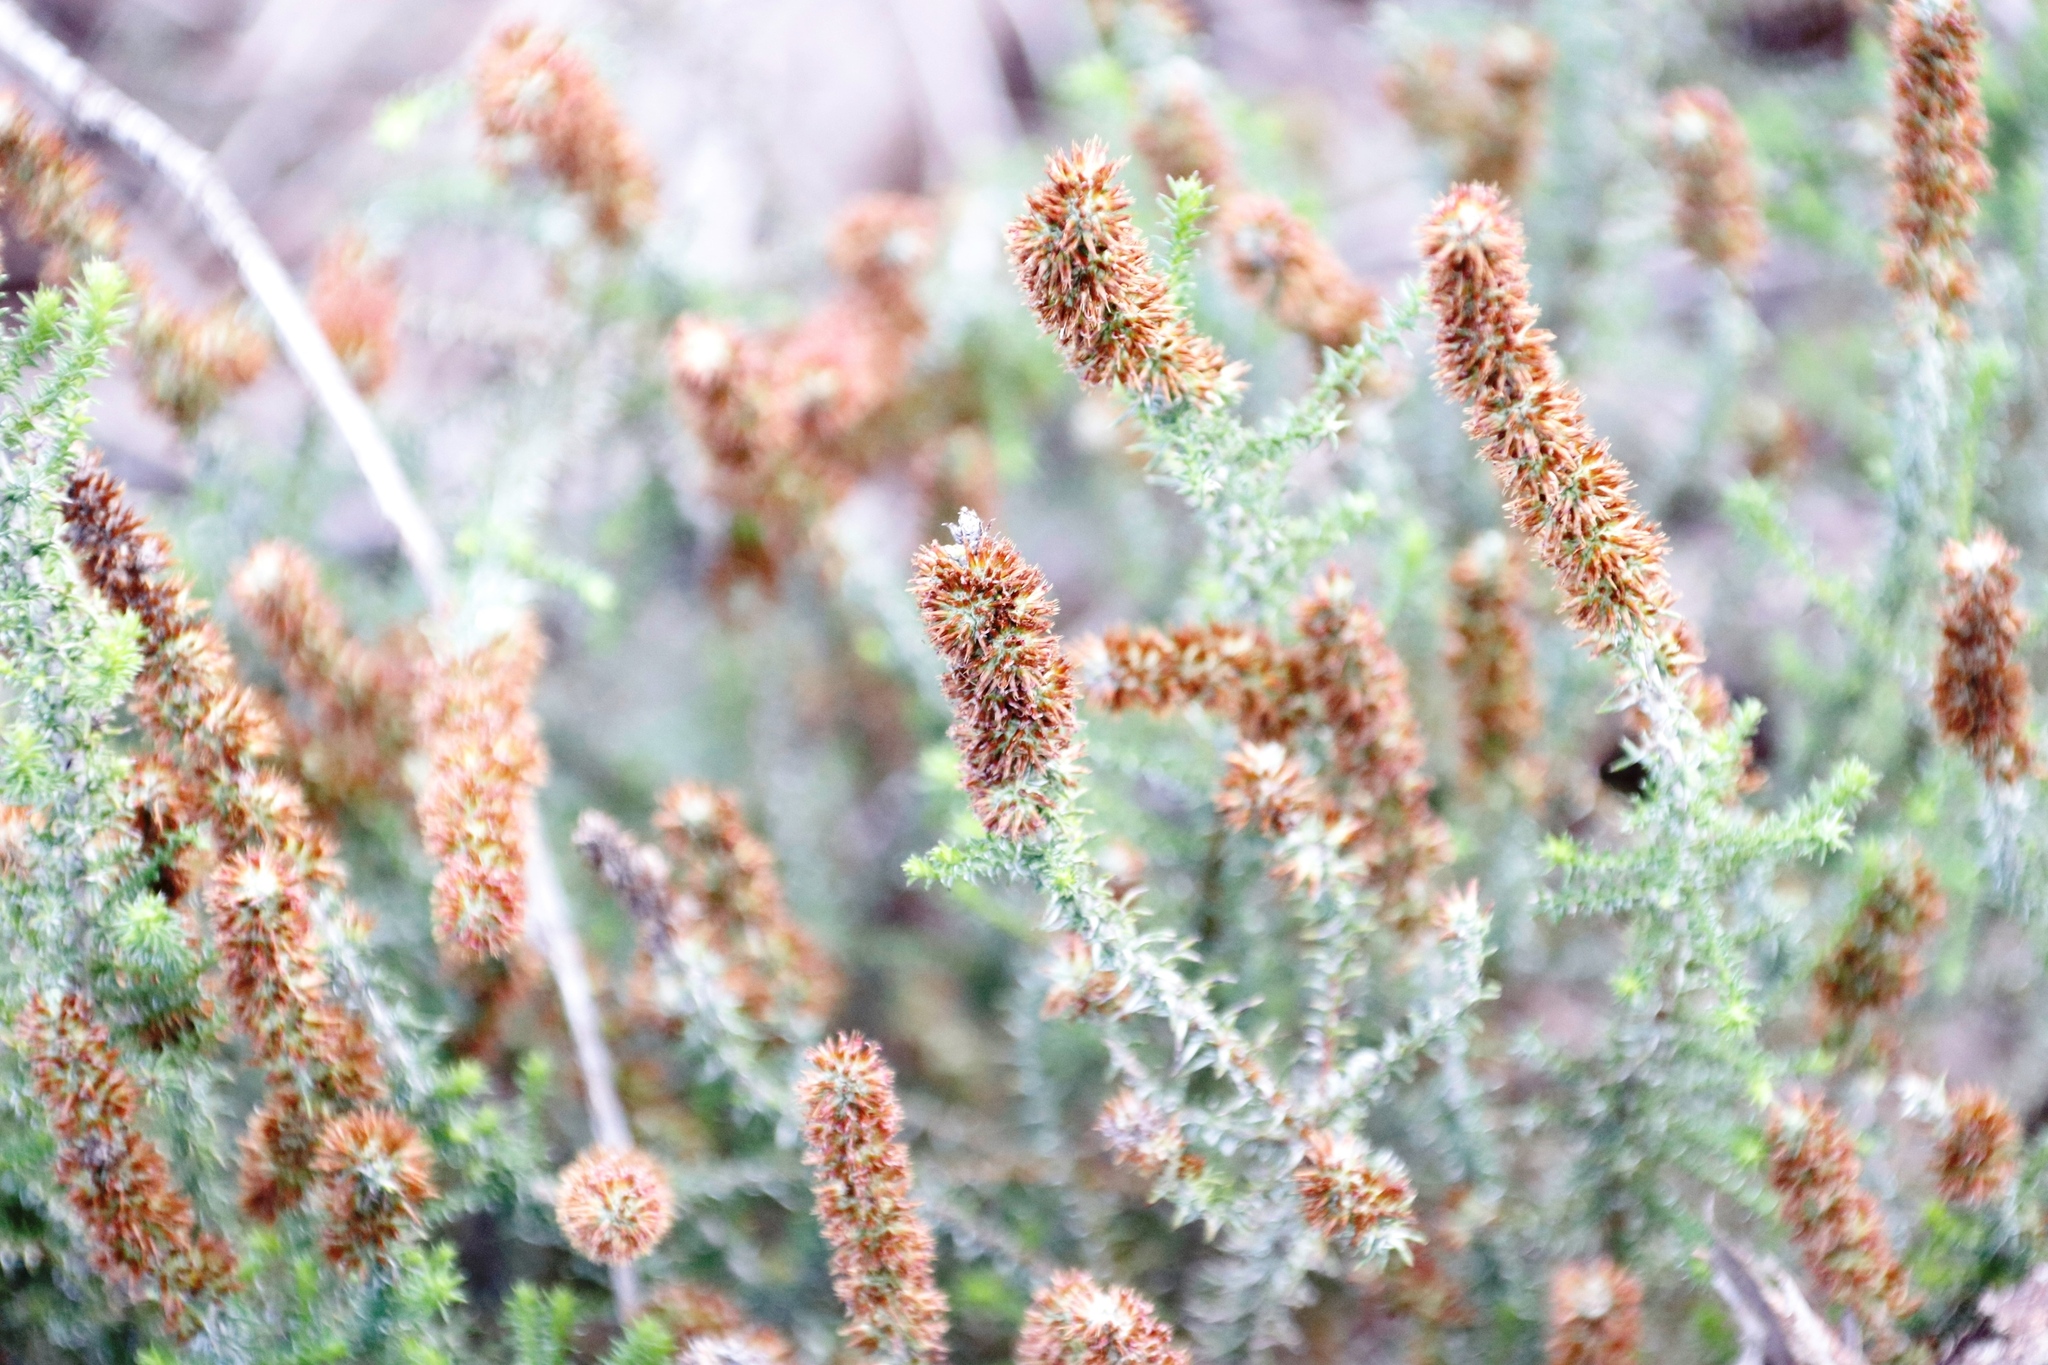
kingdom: Plantae
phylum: Tracheophyta
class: Magnoliopsida
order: Asterales
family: Asteraceae
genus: Seriphium
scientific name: Seriphium cinereum
